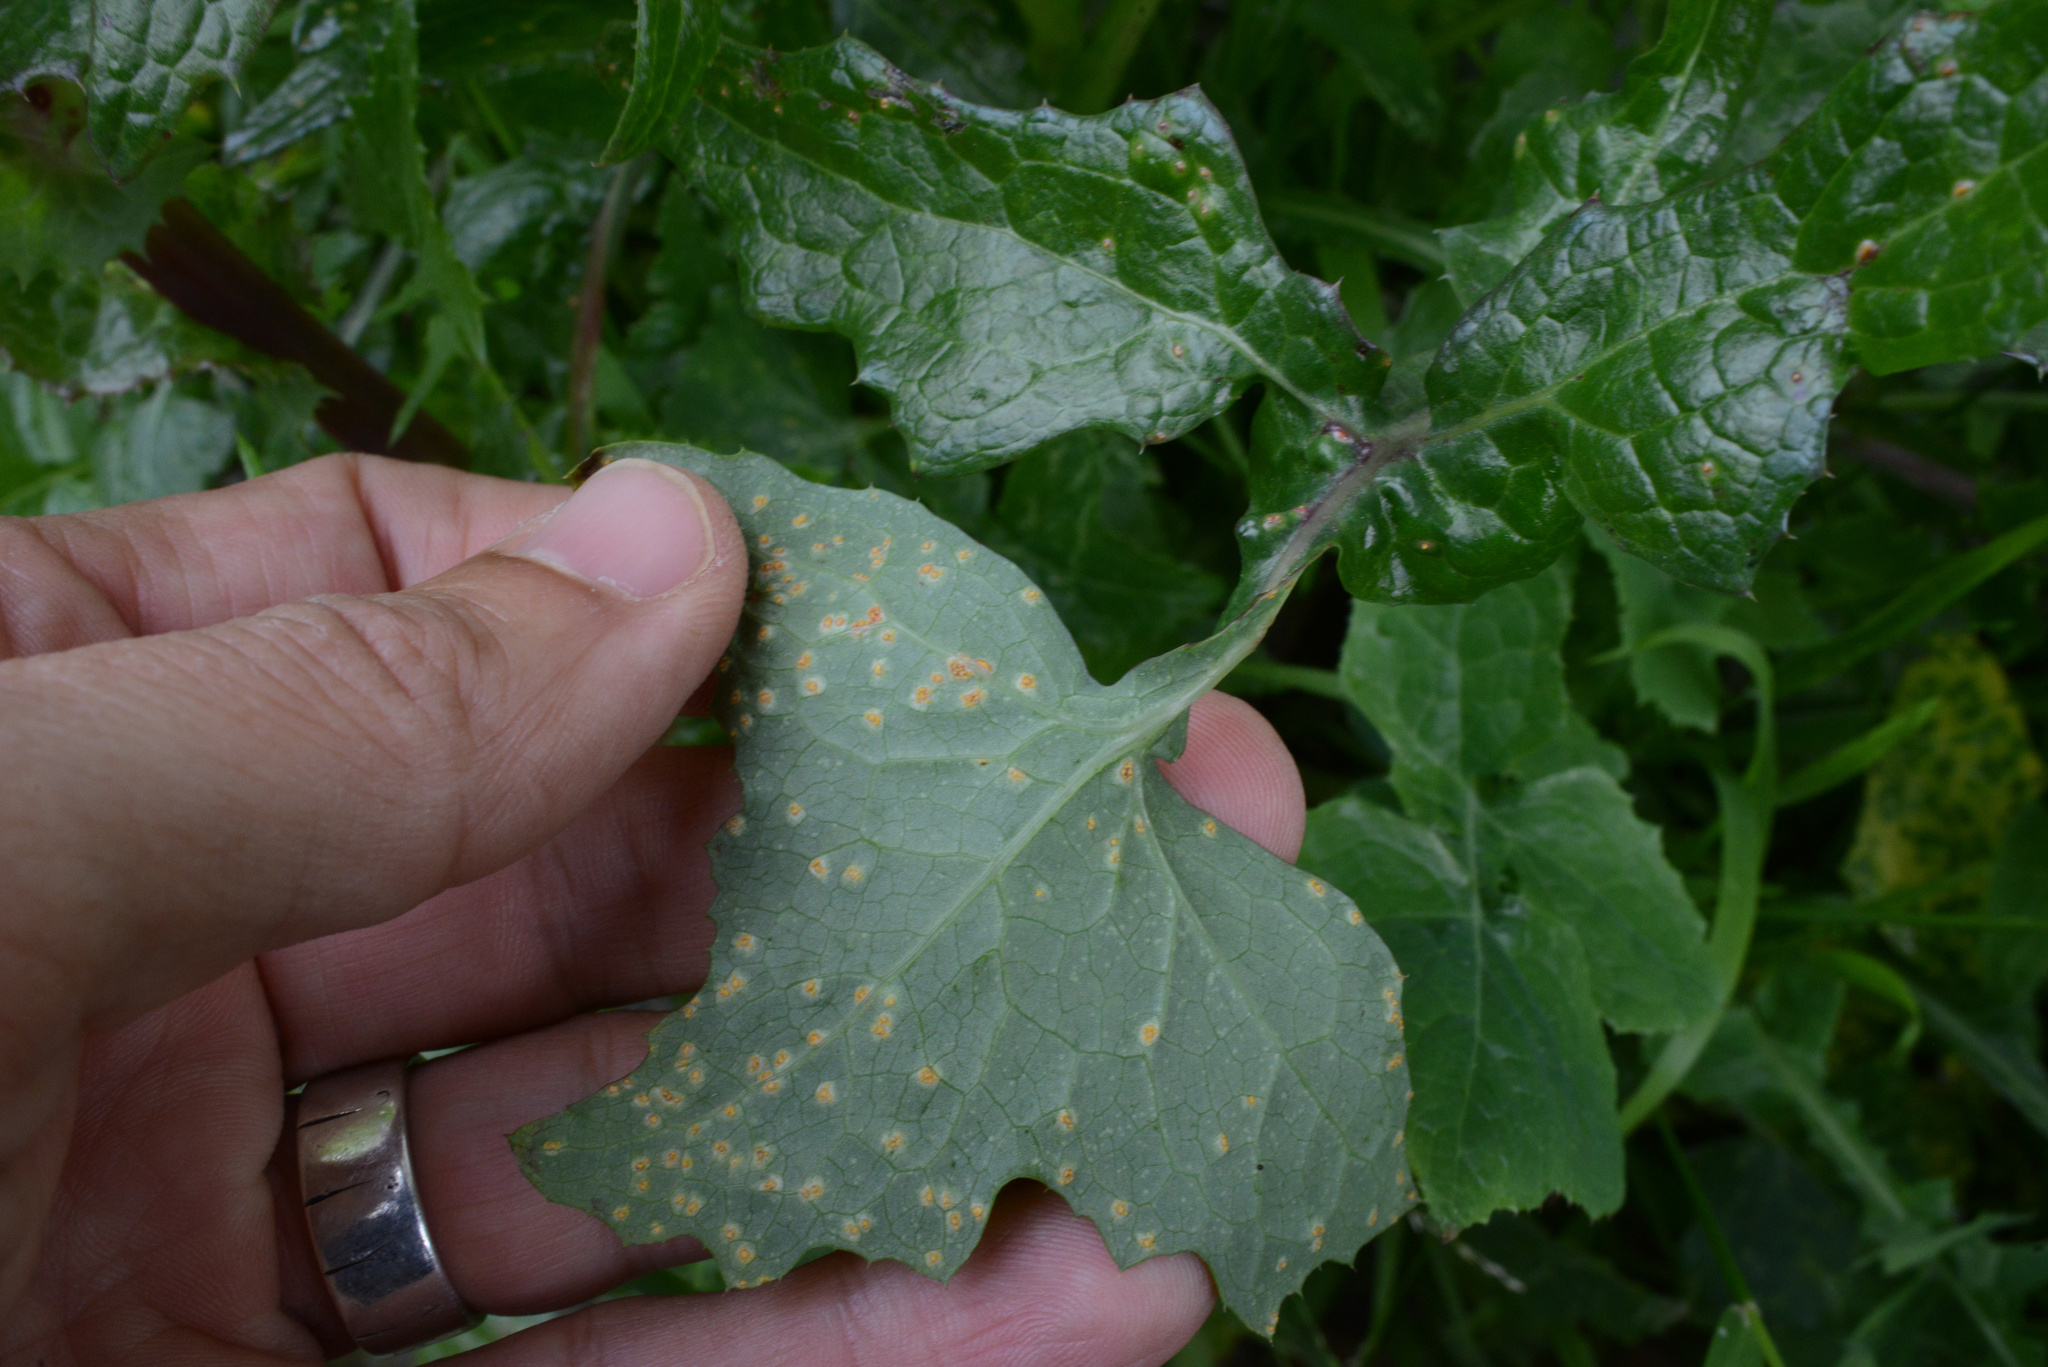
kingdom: Fungi
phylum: Basidiomycota
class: Pucciniomycetes
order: Pucciniales
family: Pucciniaceae
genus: Peristemma
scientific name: Peristemma pseudosphaeria
